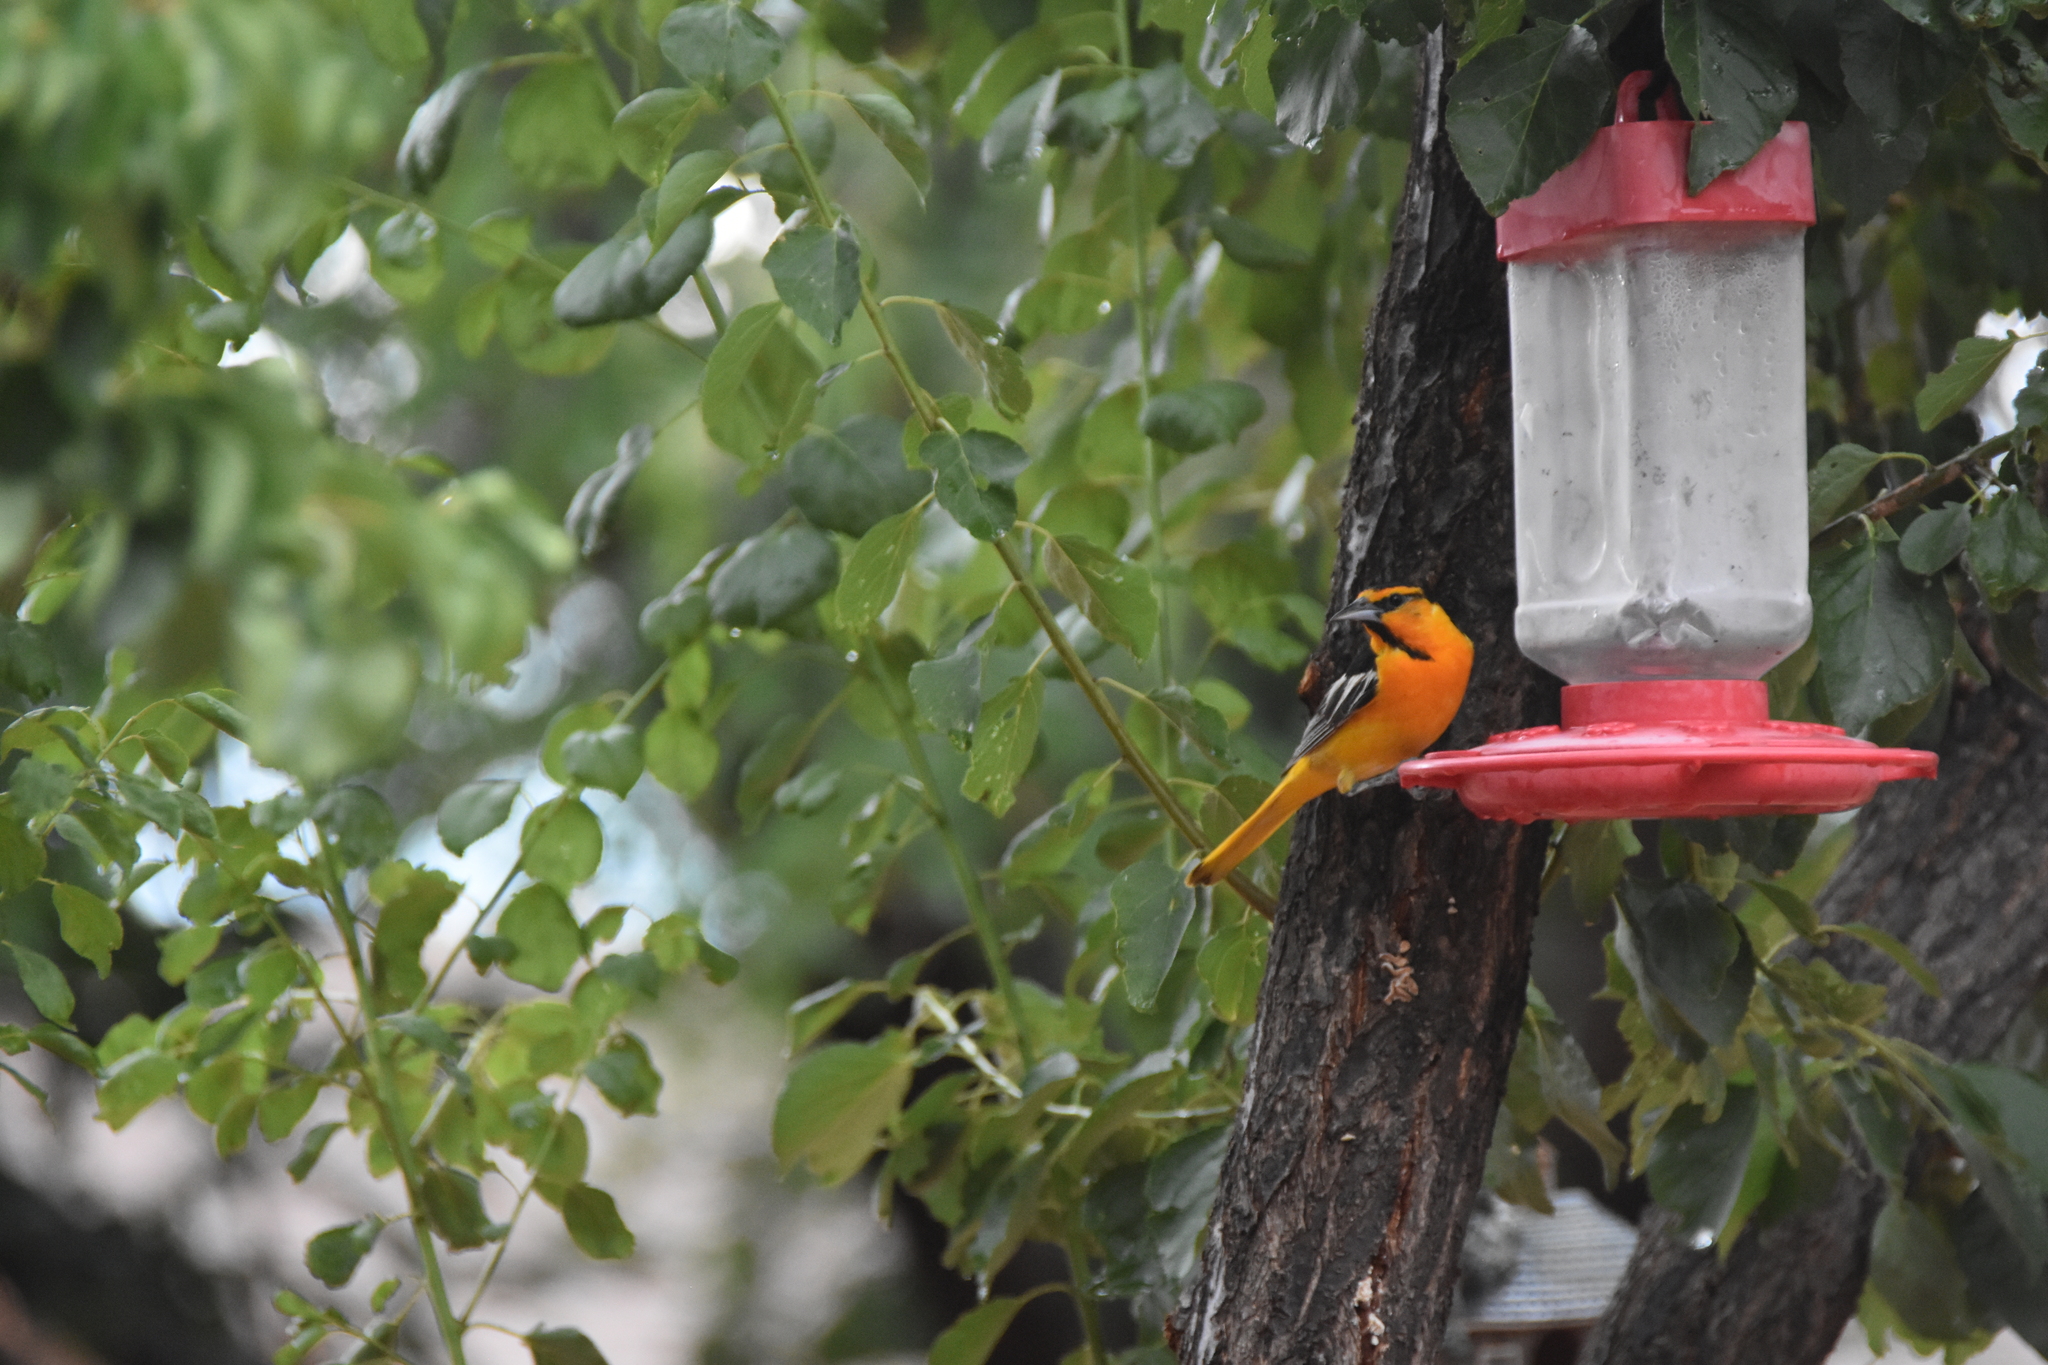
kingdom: Animalia
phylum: Chordata
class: Aves
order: Passeriformes
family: Icteridae
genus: Icterus
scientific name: Icterus bullockii
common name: Bullock's oriole
